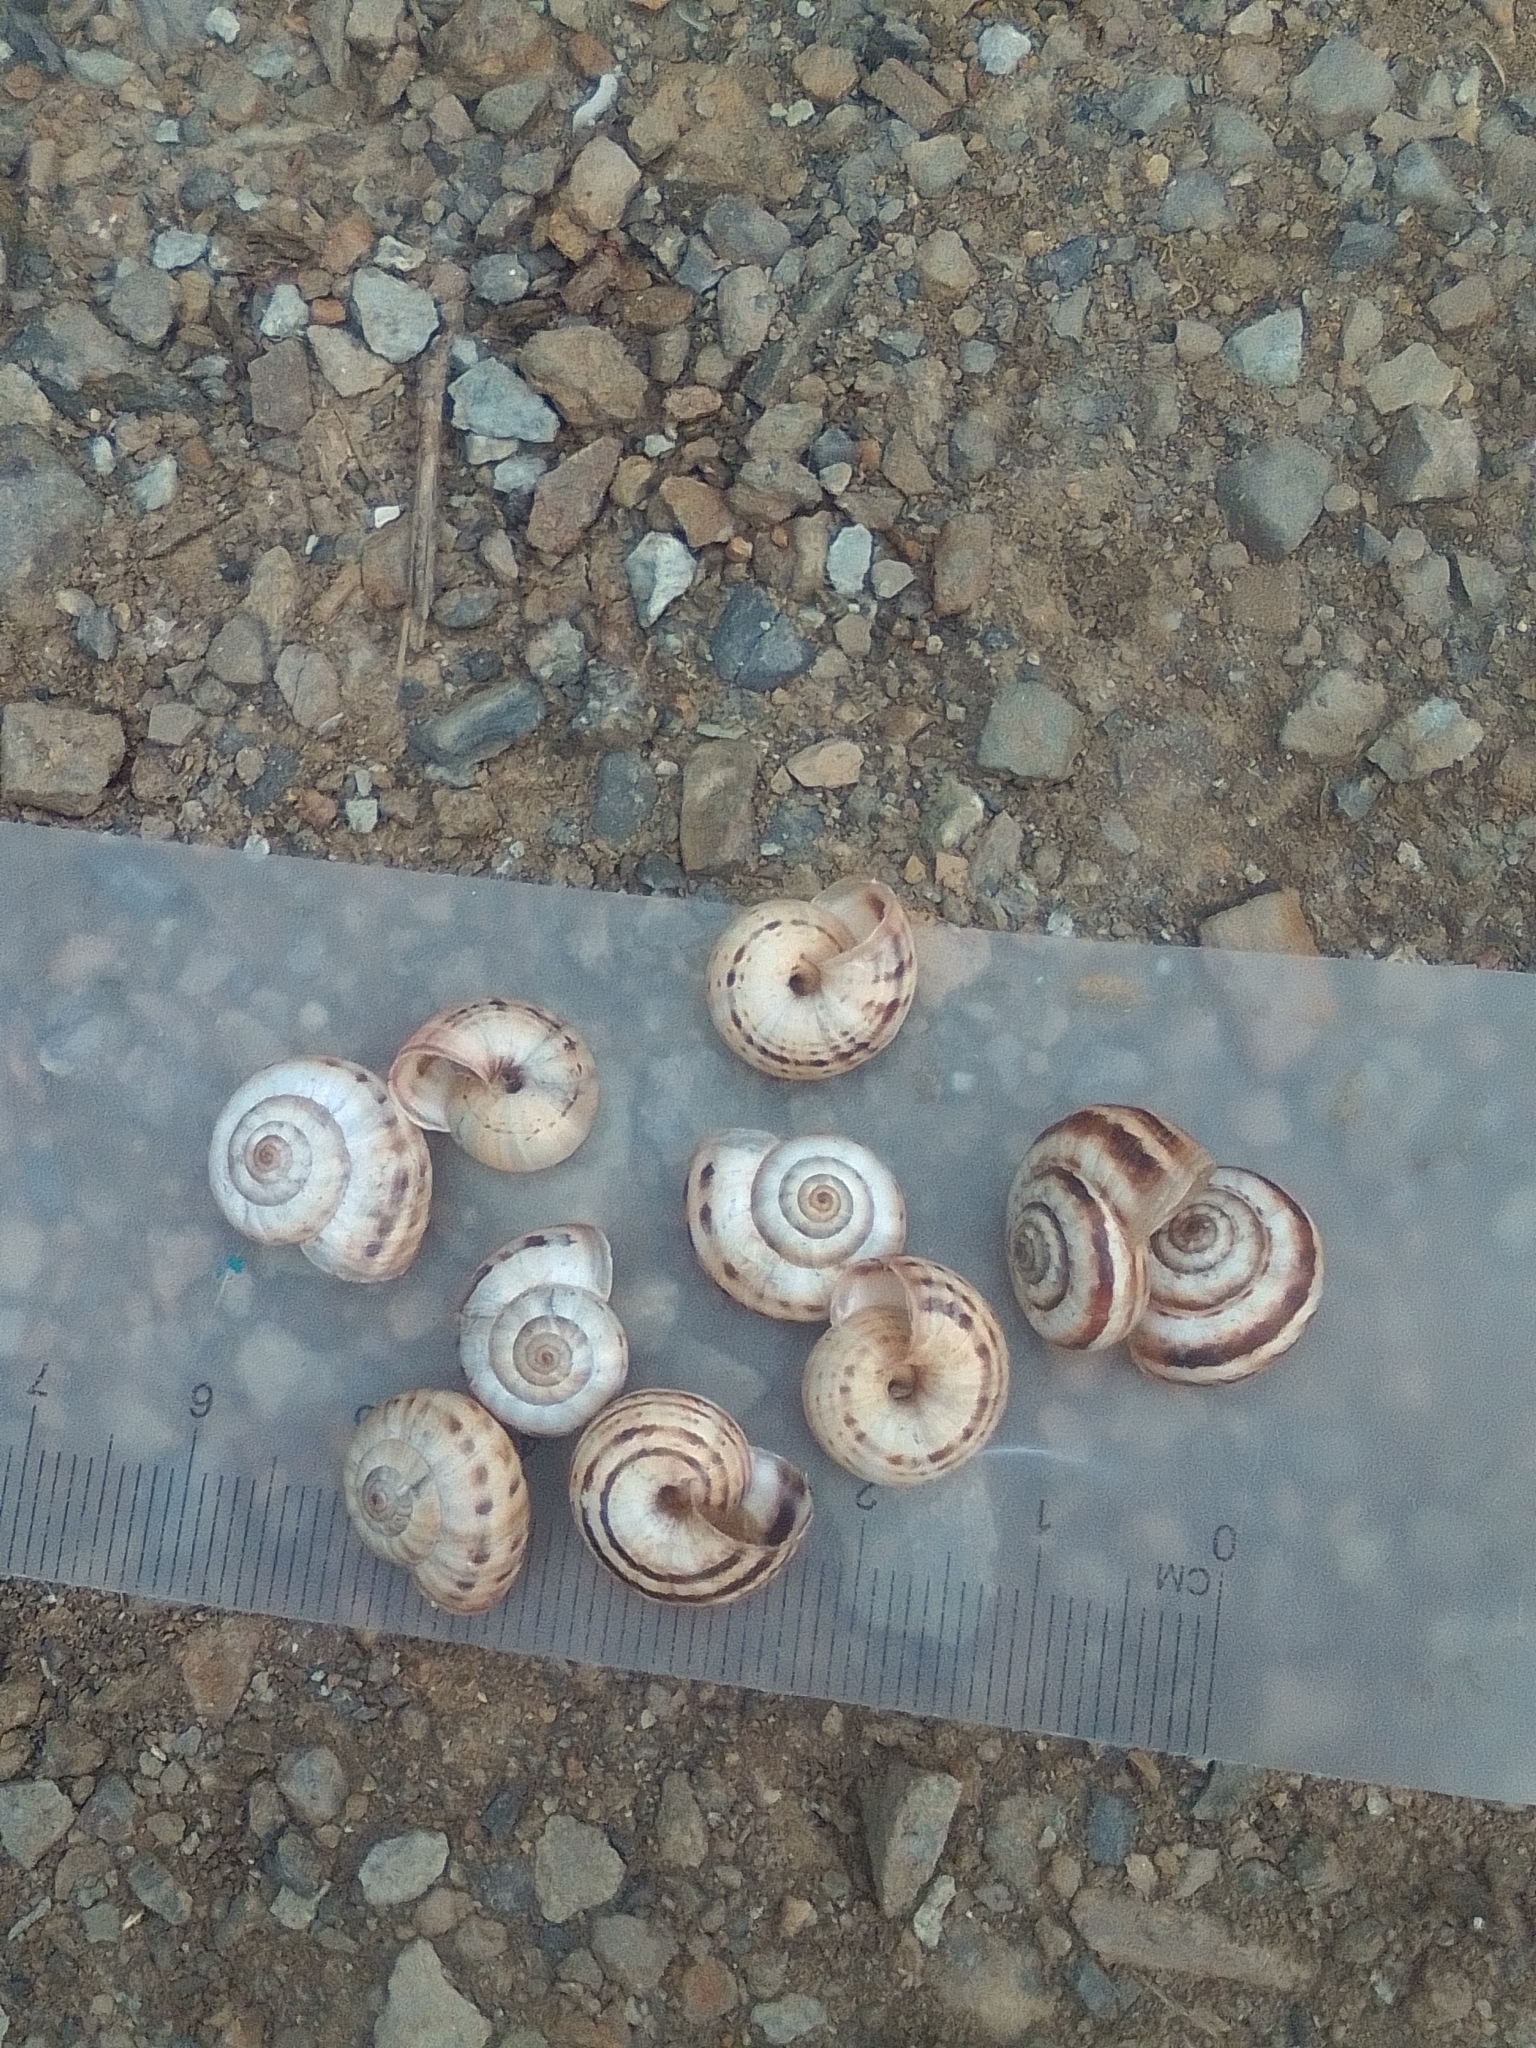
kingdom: Animalia
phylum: Mollusca
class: Gastropoda
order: Stylommatophora
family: Geomitridae
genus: Xeropicta
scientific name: Xeropicta krynickii
